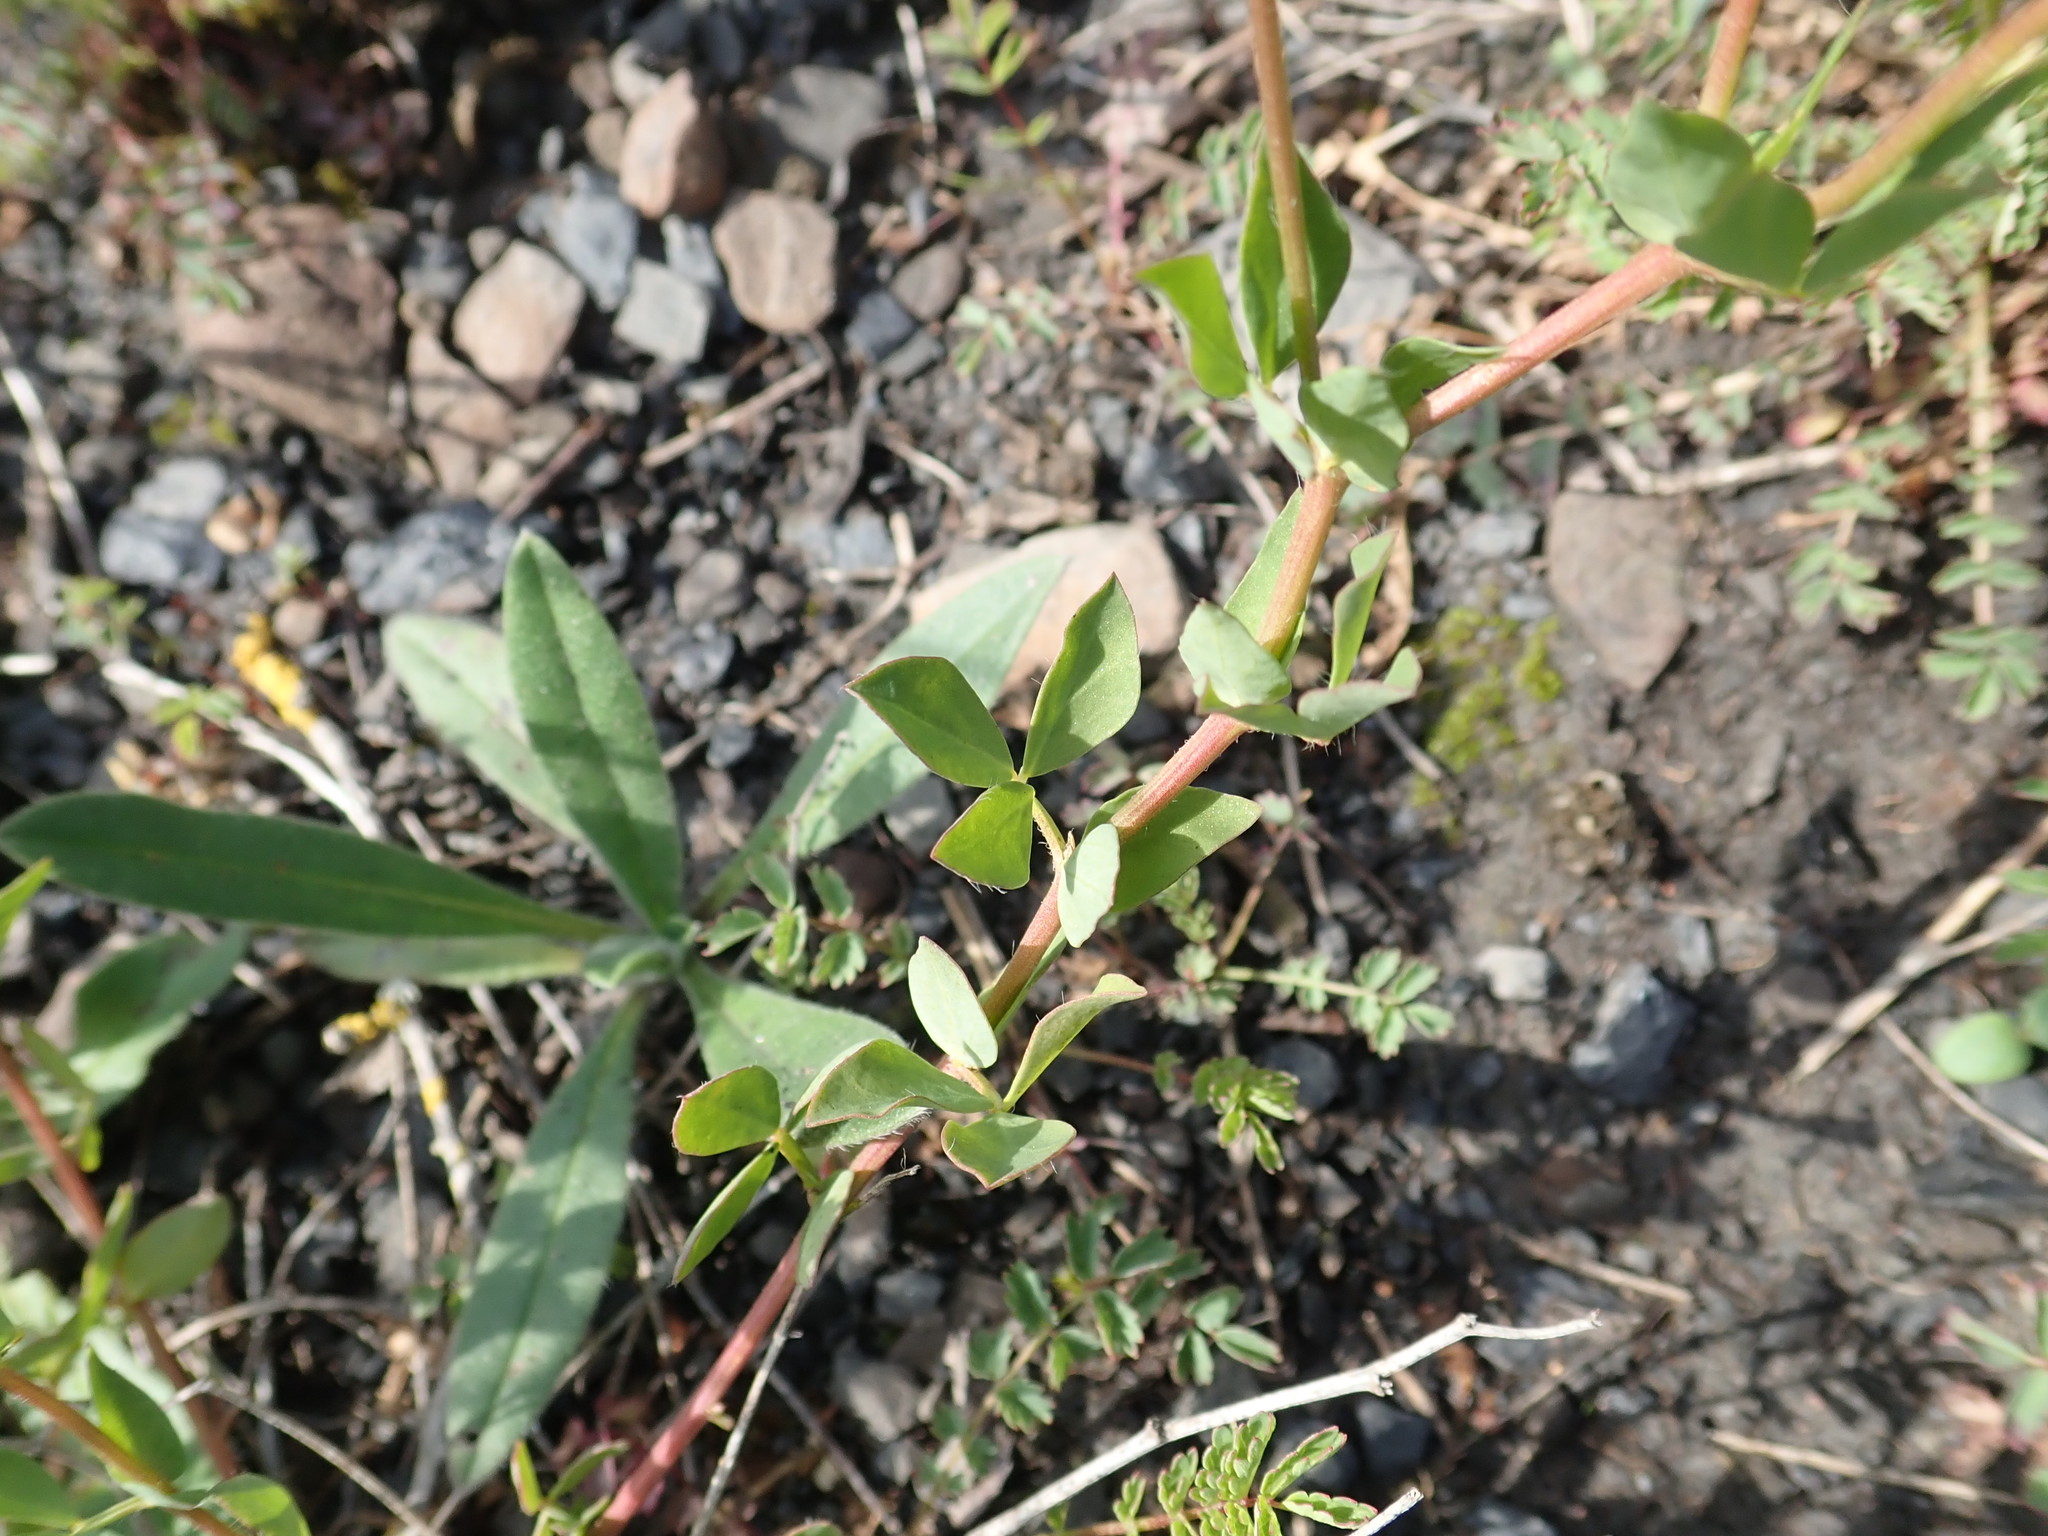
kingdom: Plantae
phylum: Tracheophyta
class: Magnoliopsida
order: Fabales
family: Fabaceae
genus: Lotus
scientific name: Lotus corniculatus
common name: Common bird's-foot-trefoil
